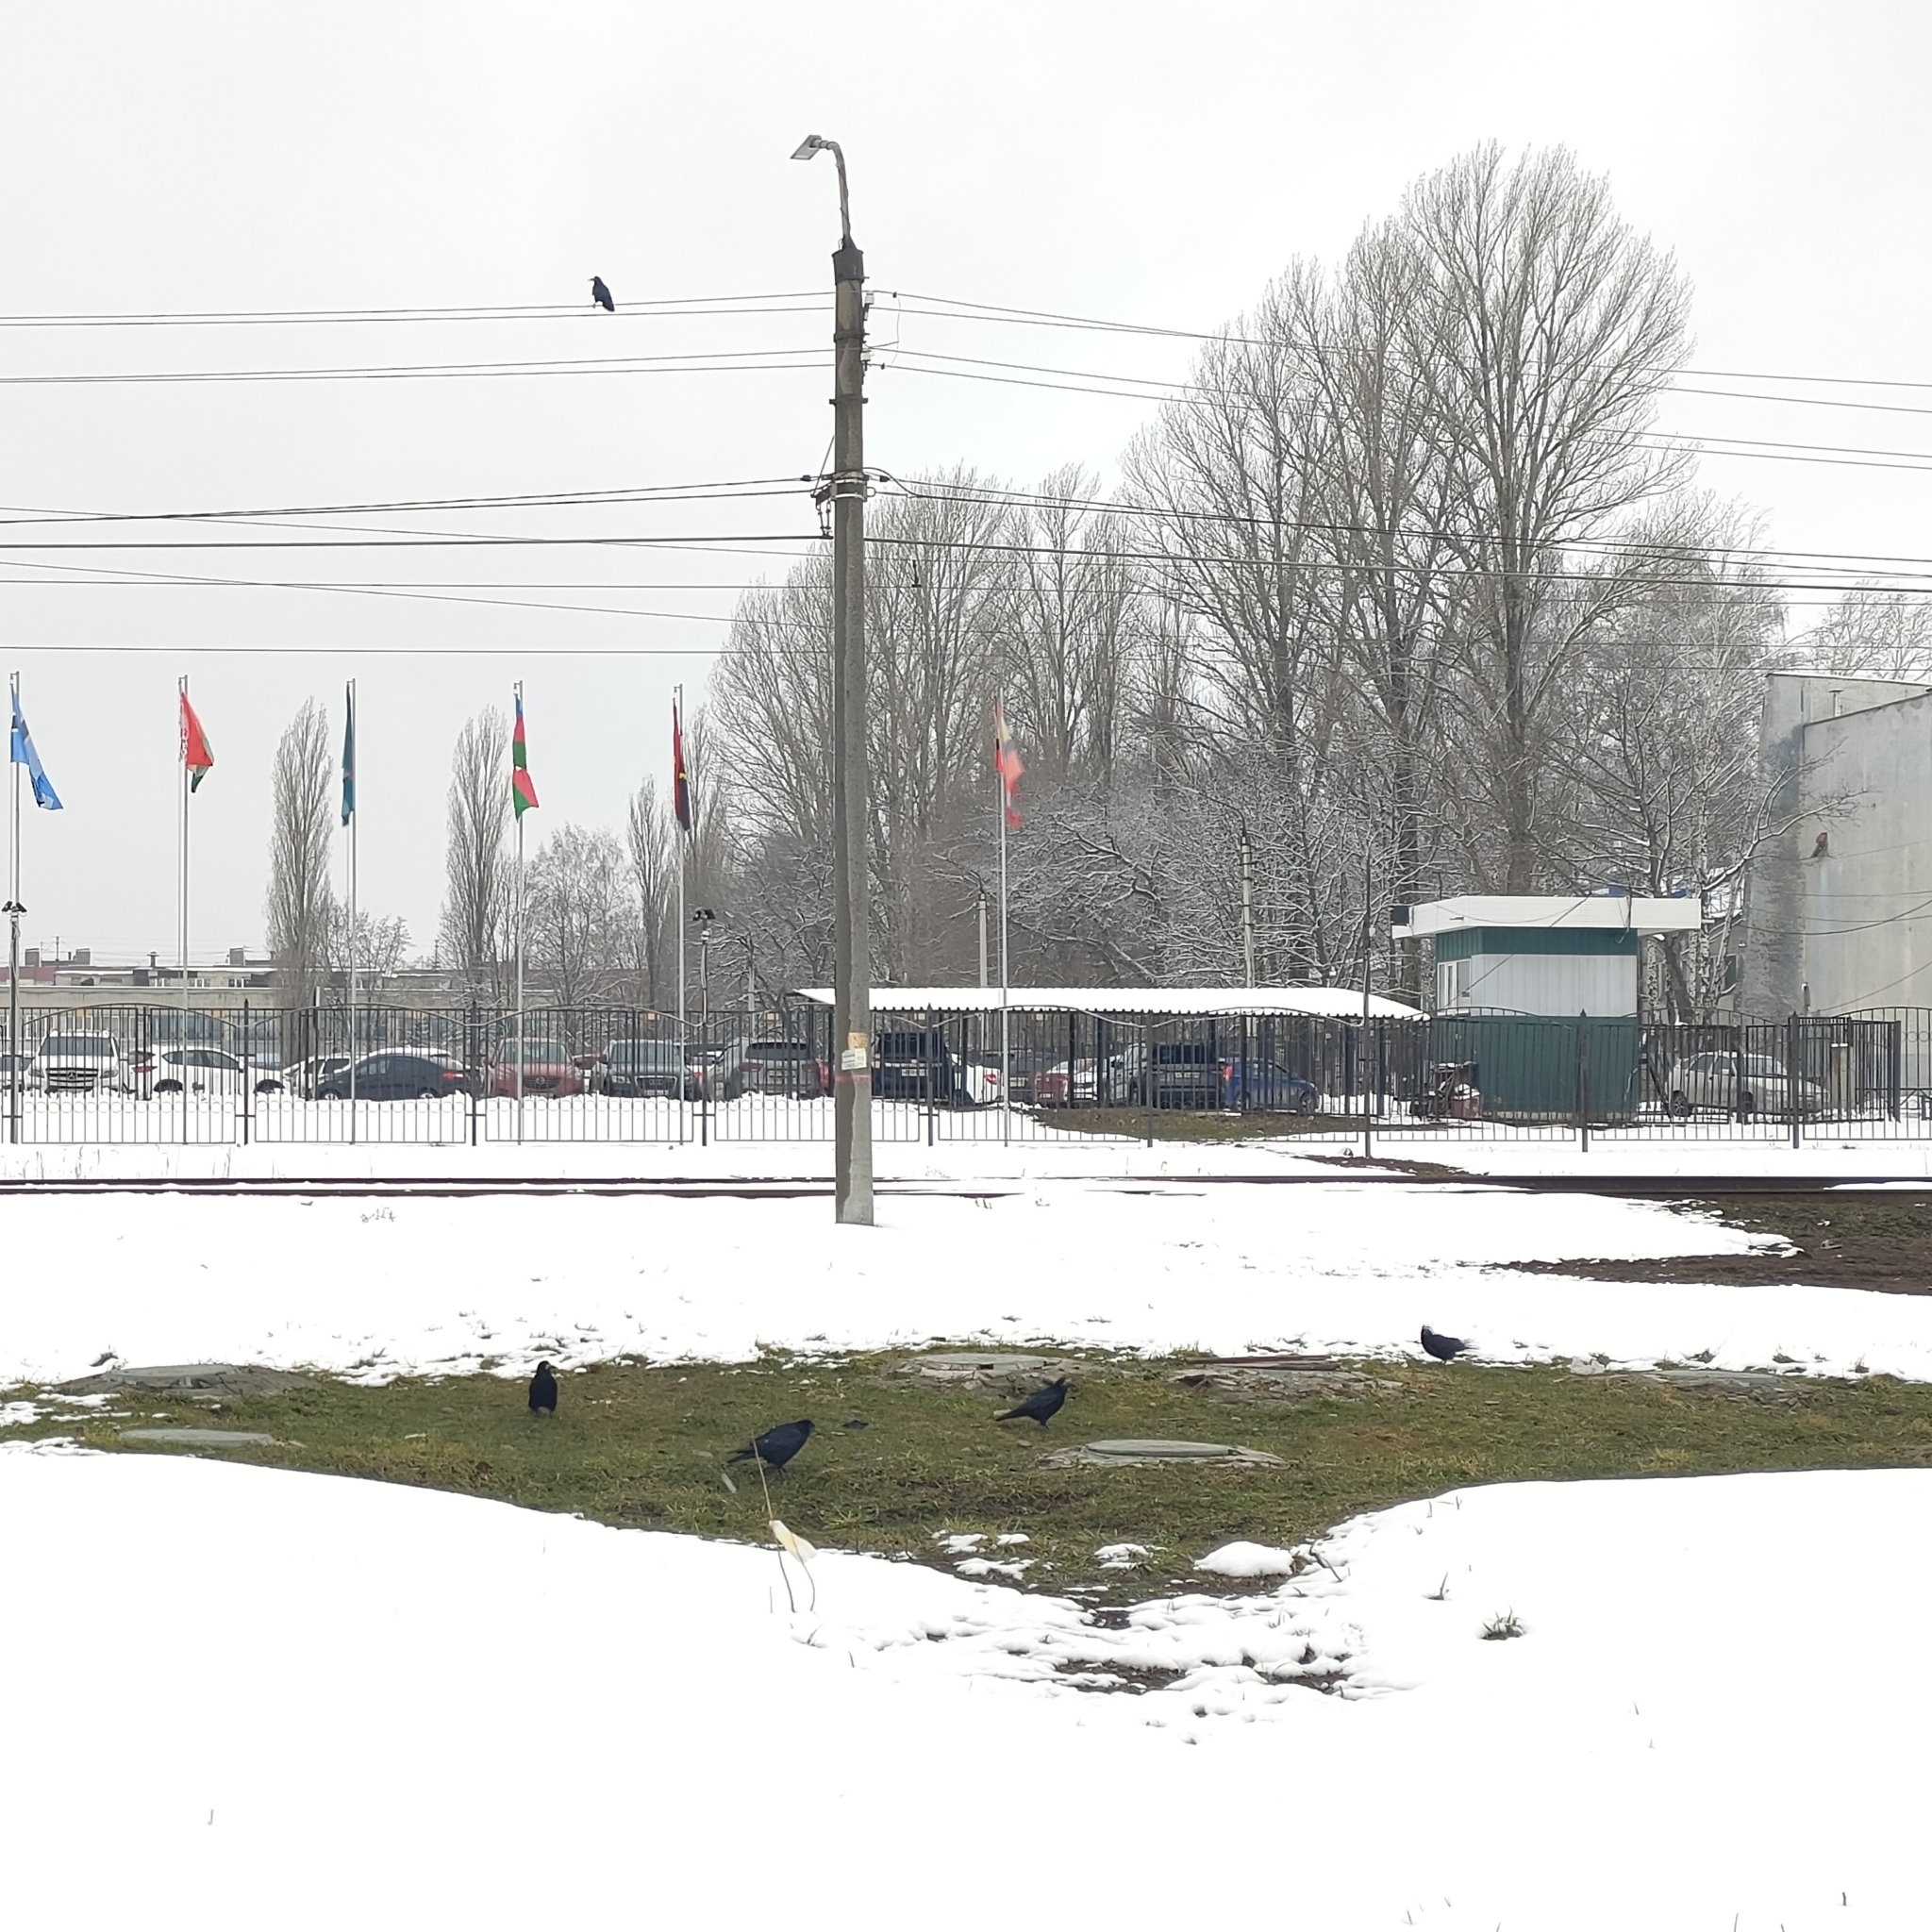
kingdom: Animalia
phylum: Chordata
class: Aves
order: Passeriformes
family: Corvidae
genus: Corvus
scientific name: Corvus frugilegus
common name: Rook
